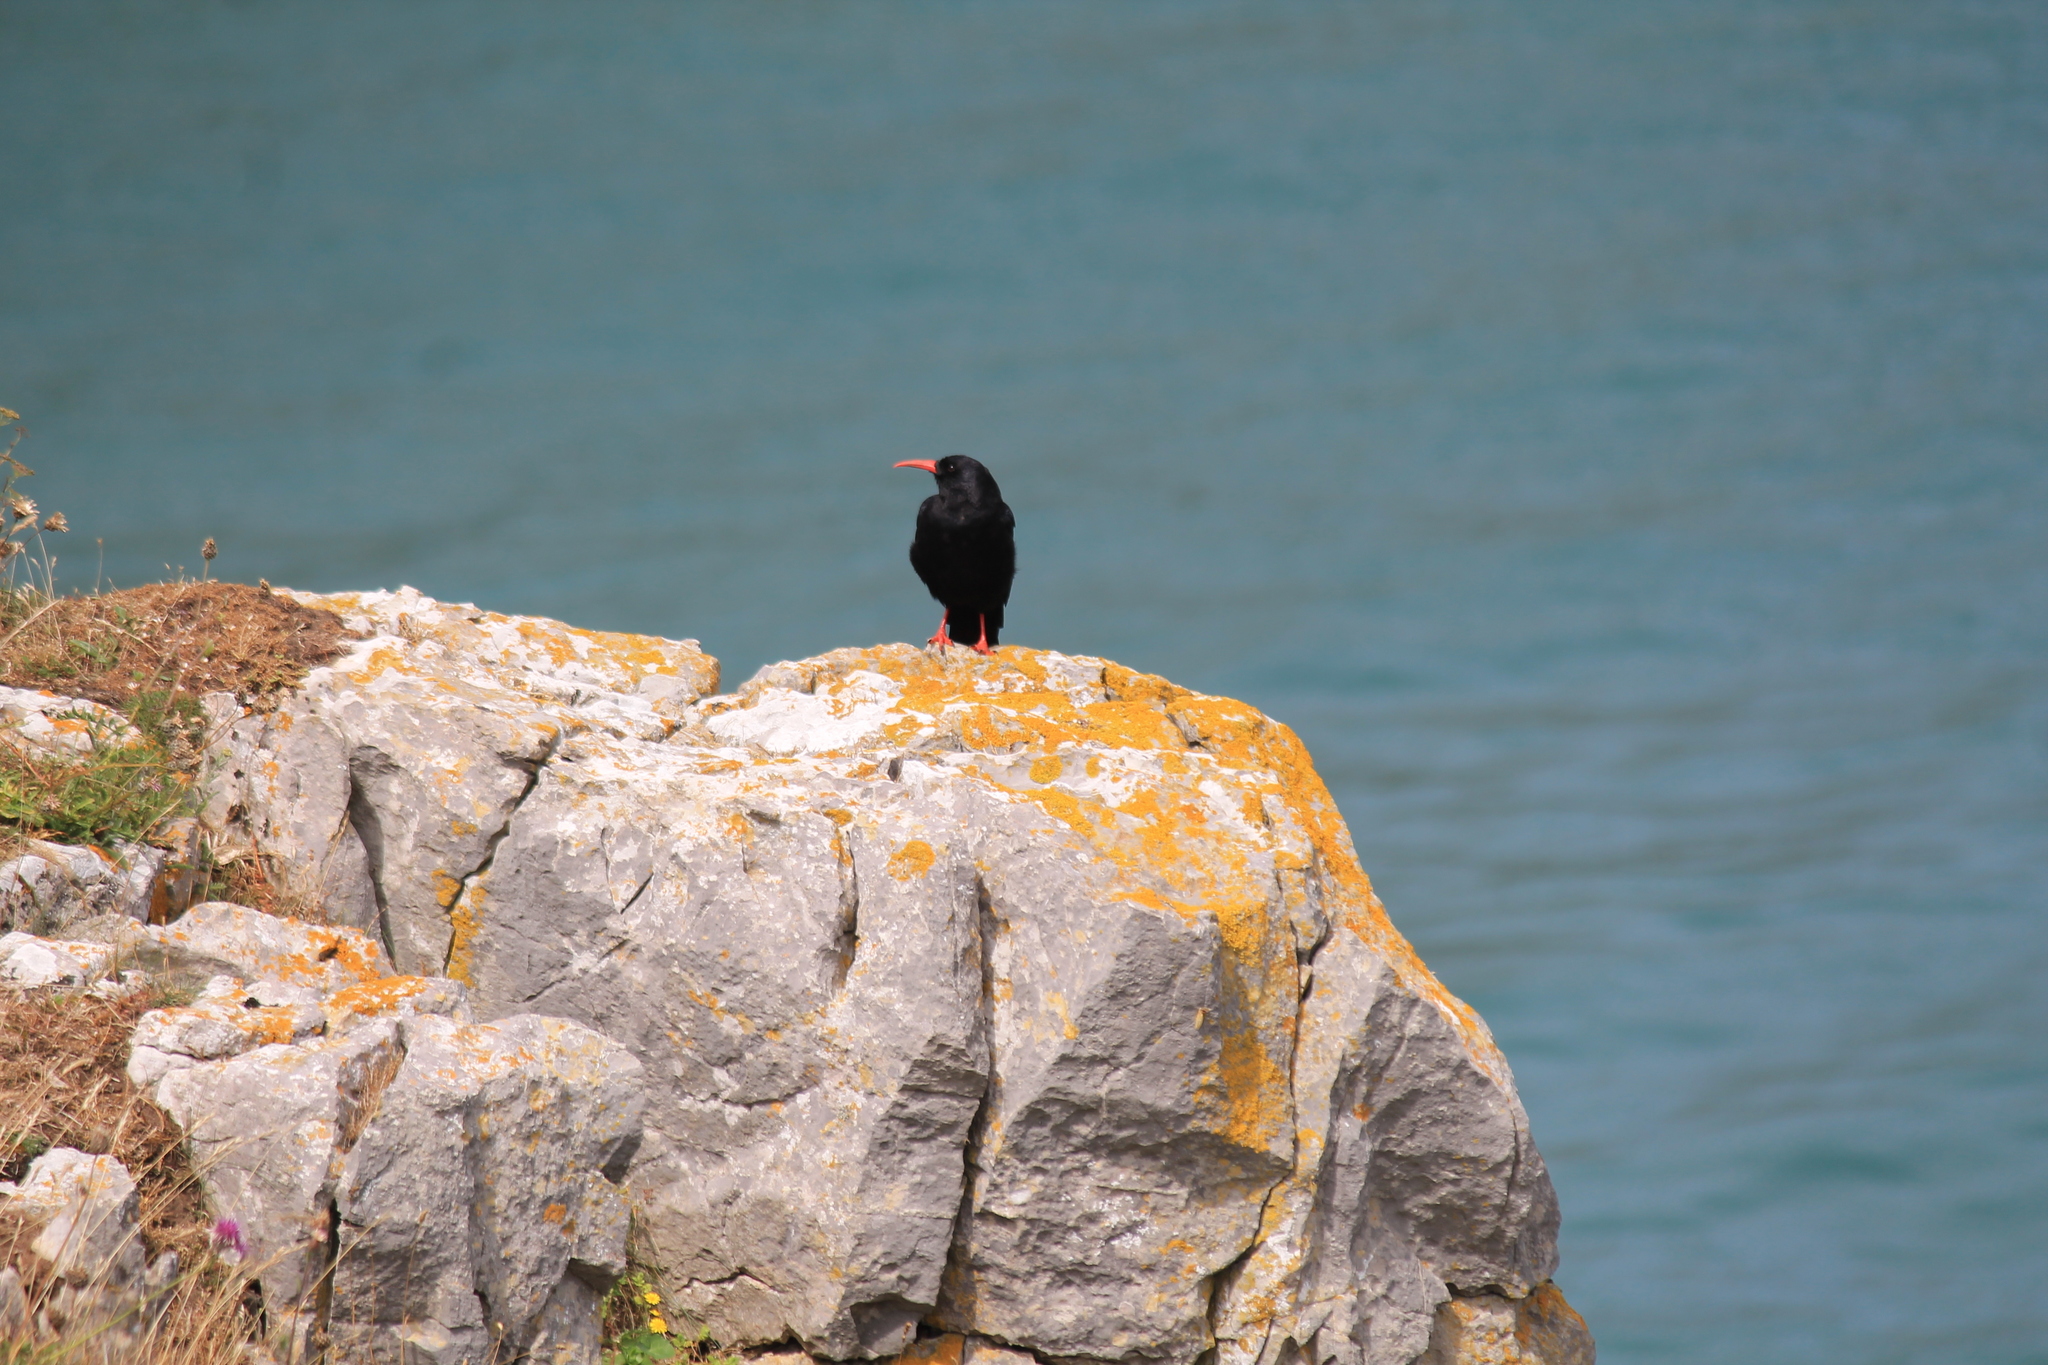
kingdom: Animalia
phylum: Chordata
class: Aves
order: Passeriformes
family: Corvidae
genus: Pyrrhocorax
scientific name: Pyrrhocorax pyrrhocorax
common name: Red-billed chough
